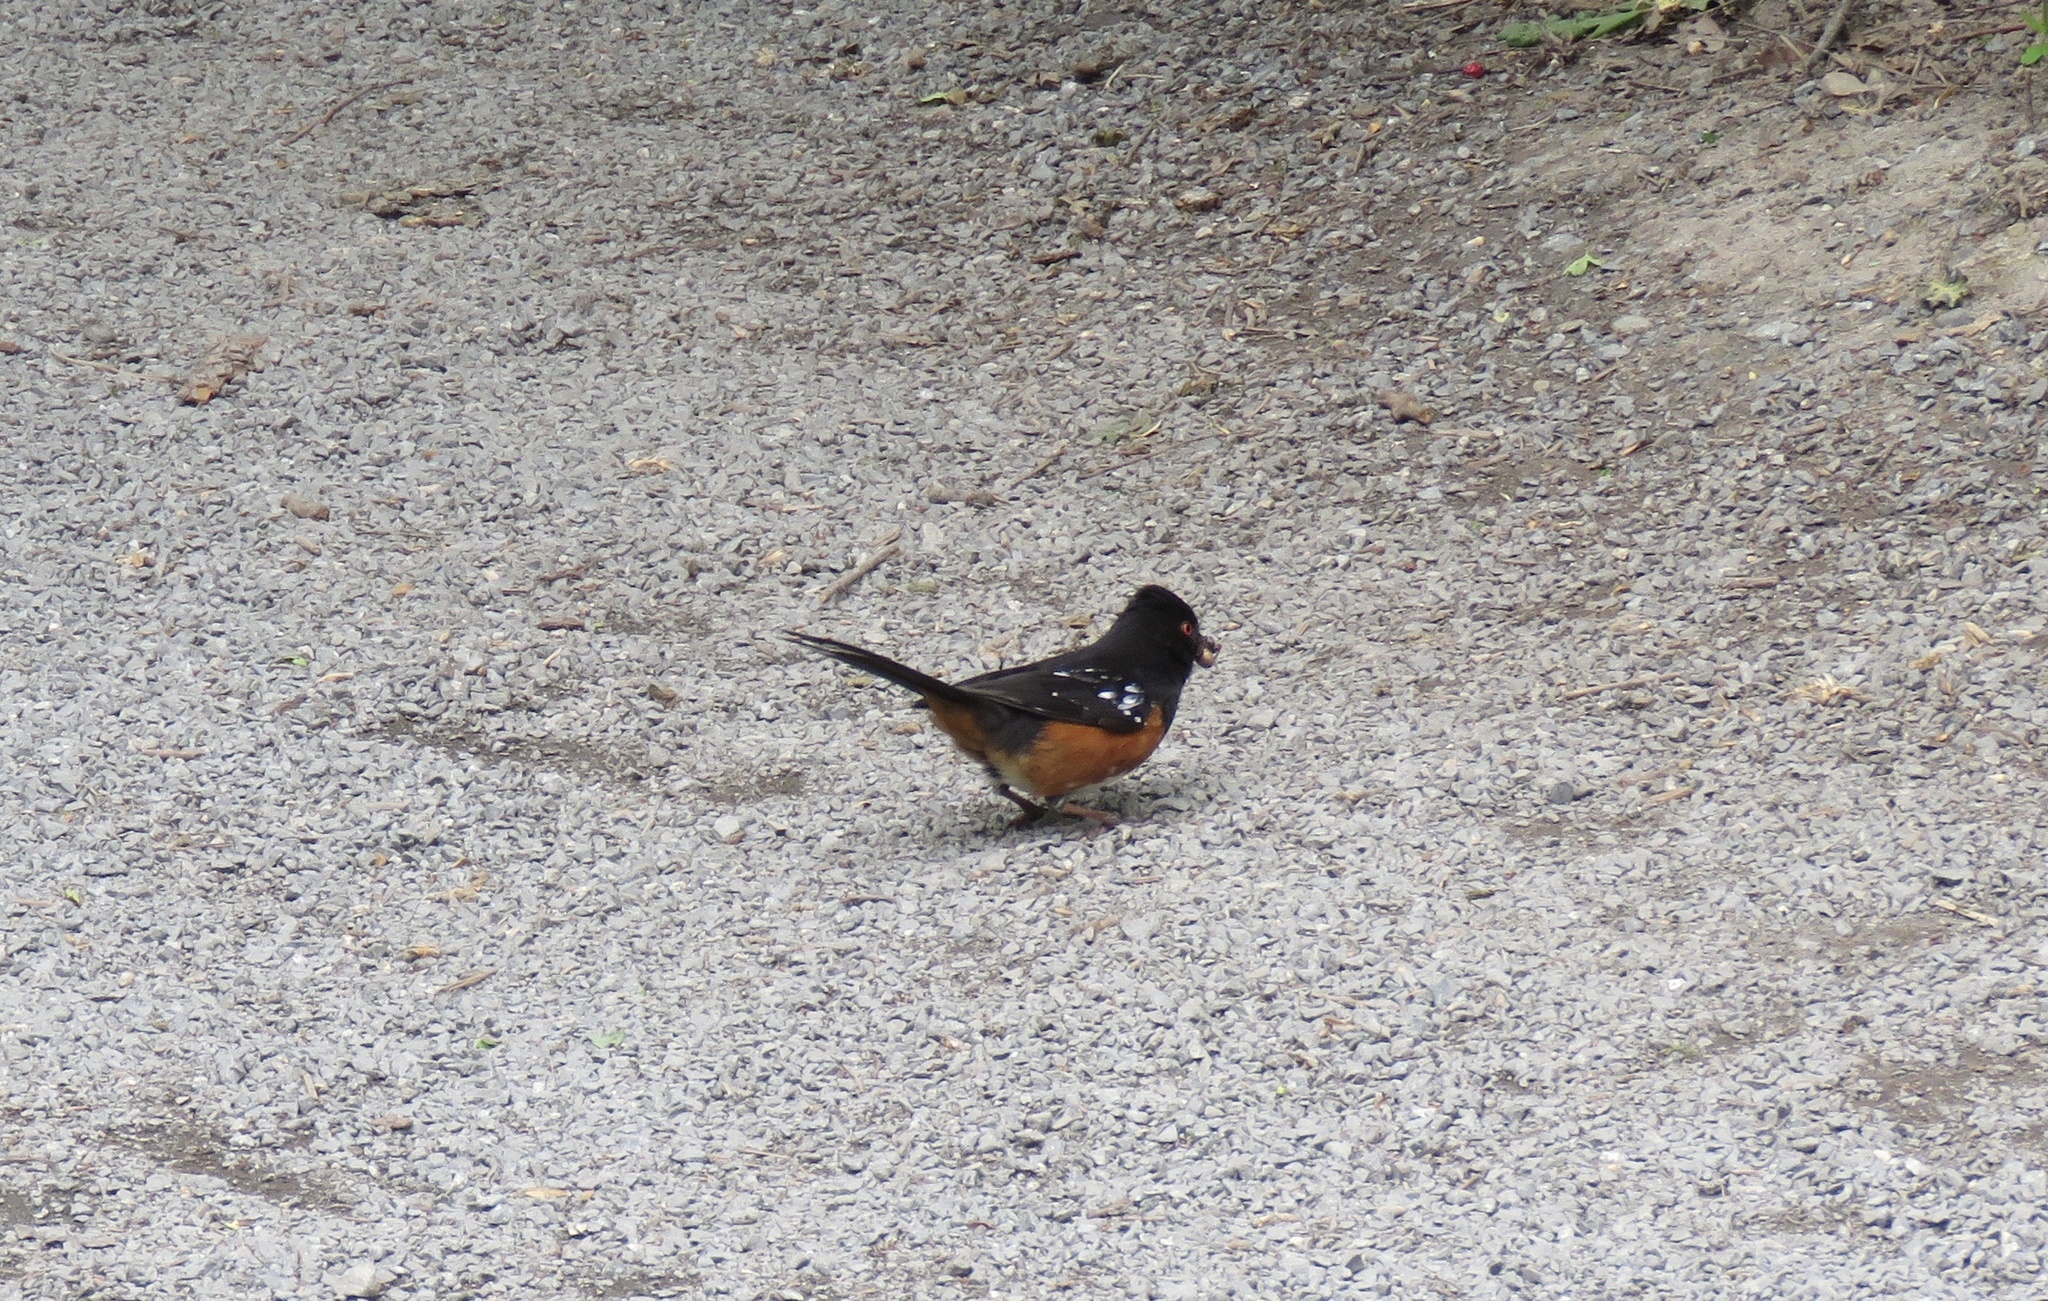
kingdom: Animalia
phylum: Chordata
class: Aves
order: Passeriformes
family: Passerellidae
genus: Pipilo
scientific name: Pipilo maculatus
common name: Spotted towhee
